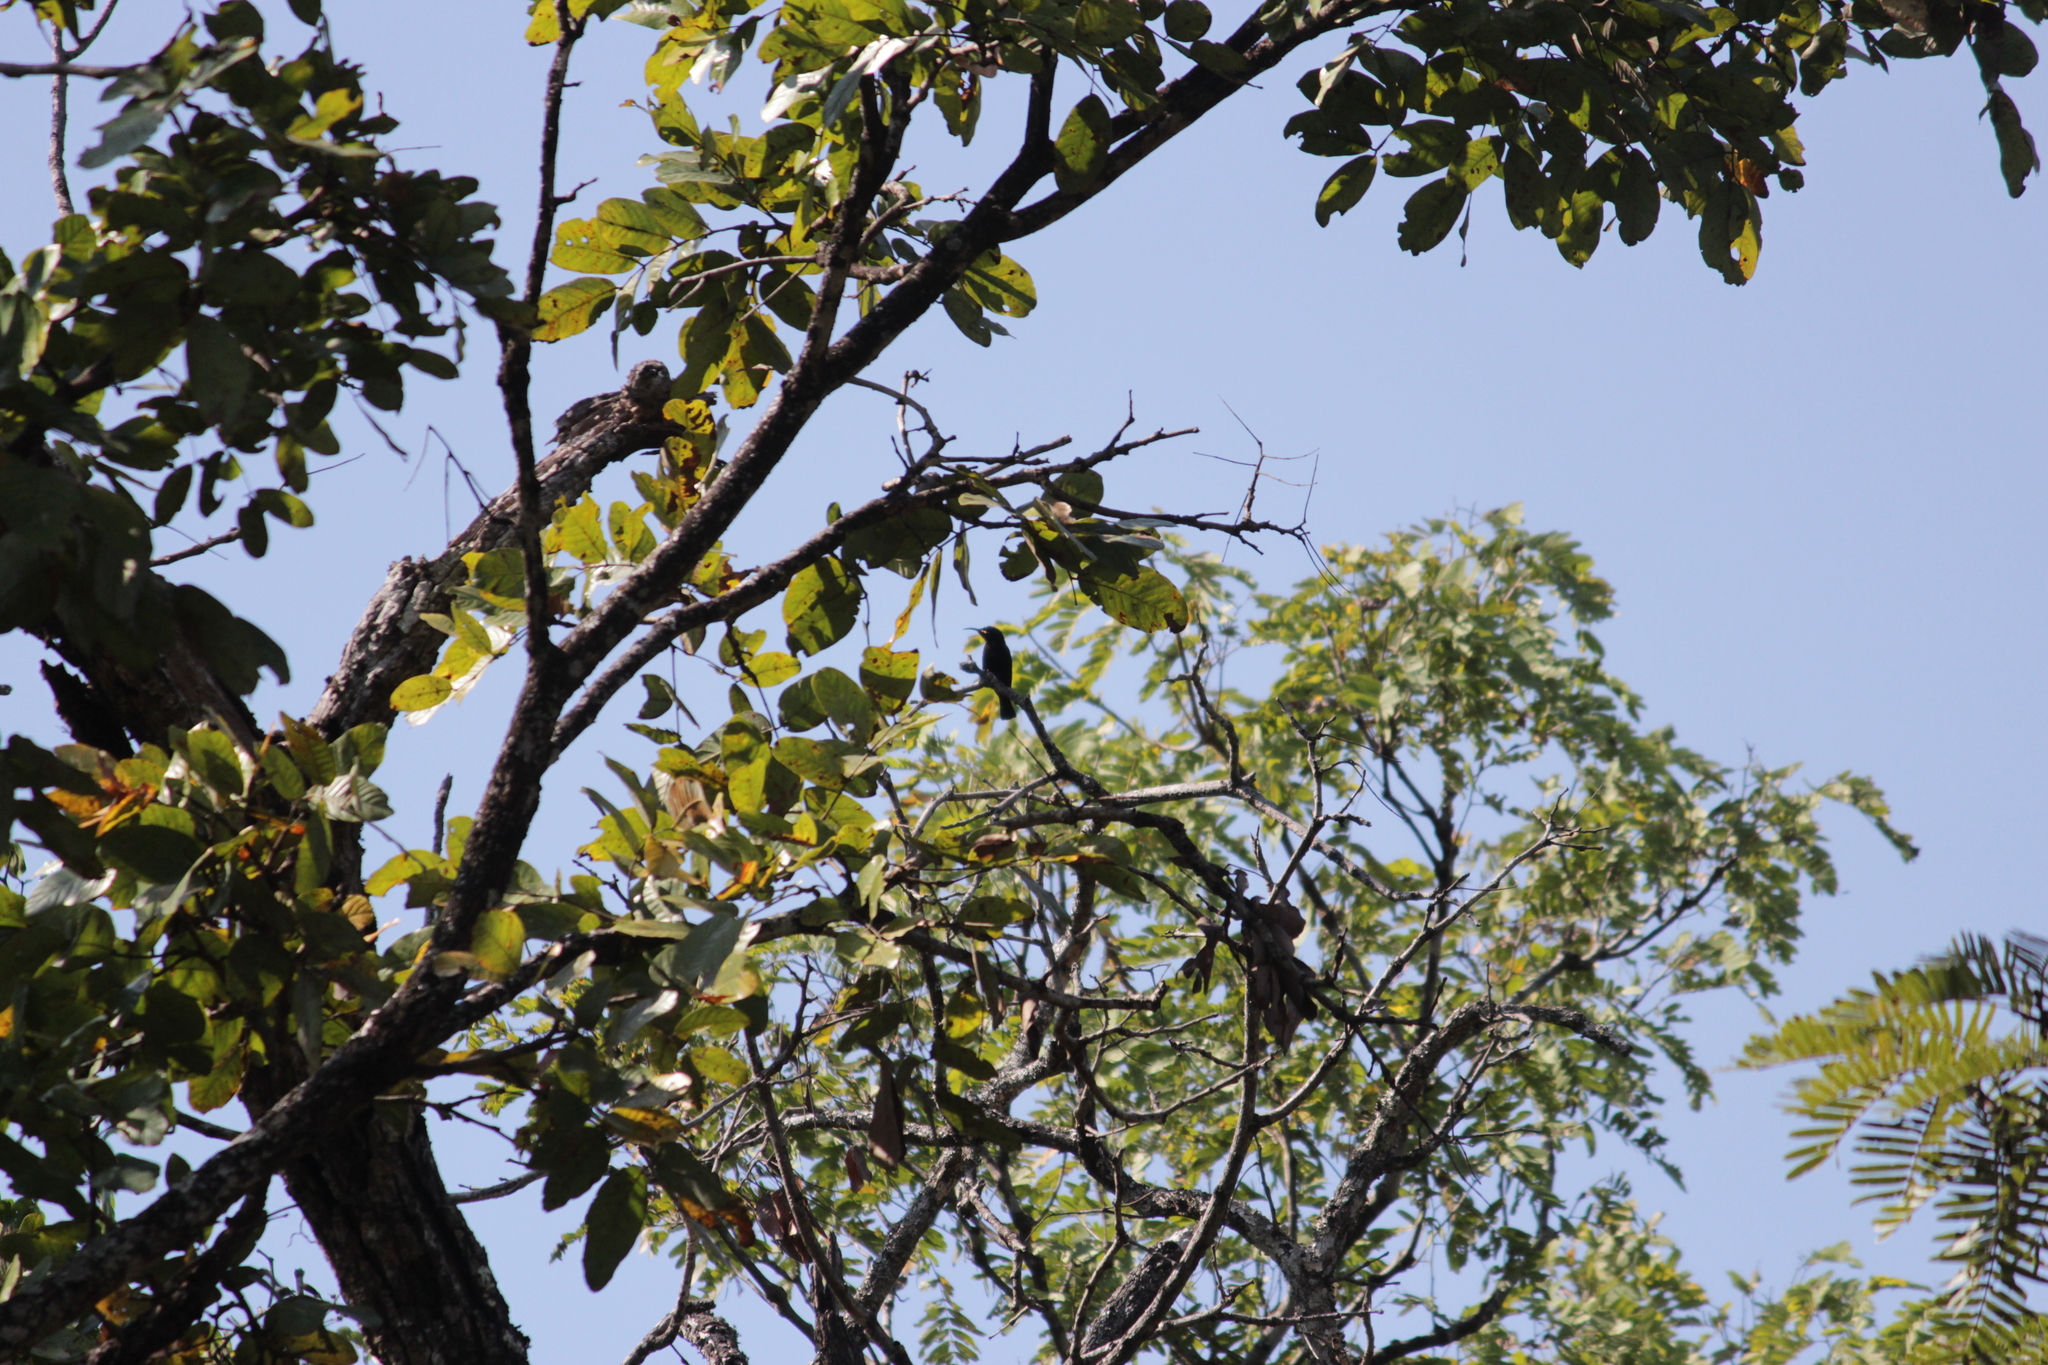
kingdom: Animalia
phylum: Chordata
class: Aves
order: Passeriformes
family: Nectariniidae
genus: Chalcomitra
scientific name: Chalcomitra amethystina
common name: Amethyst sunbird
